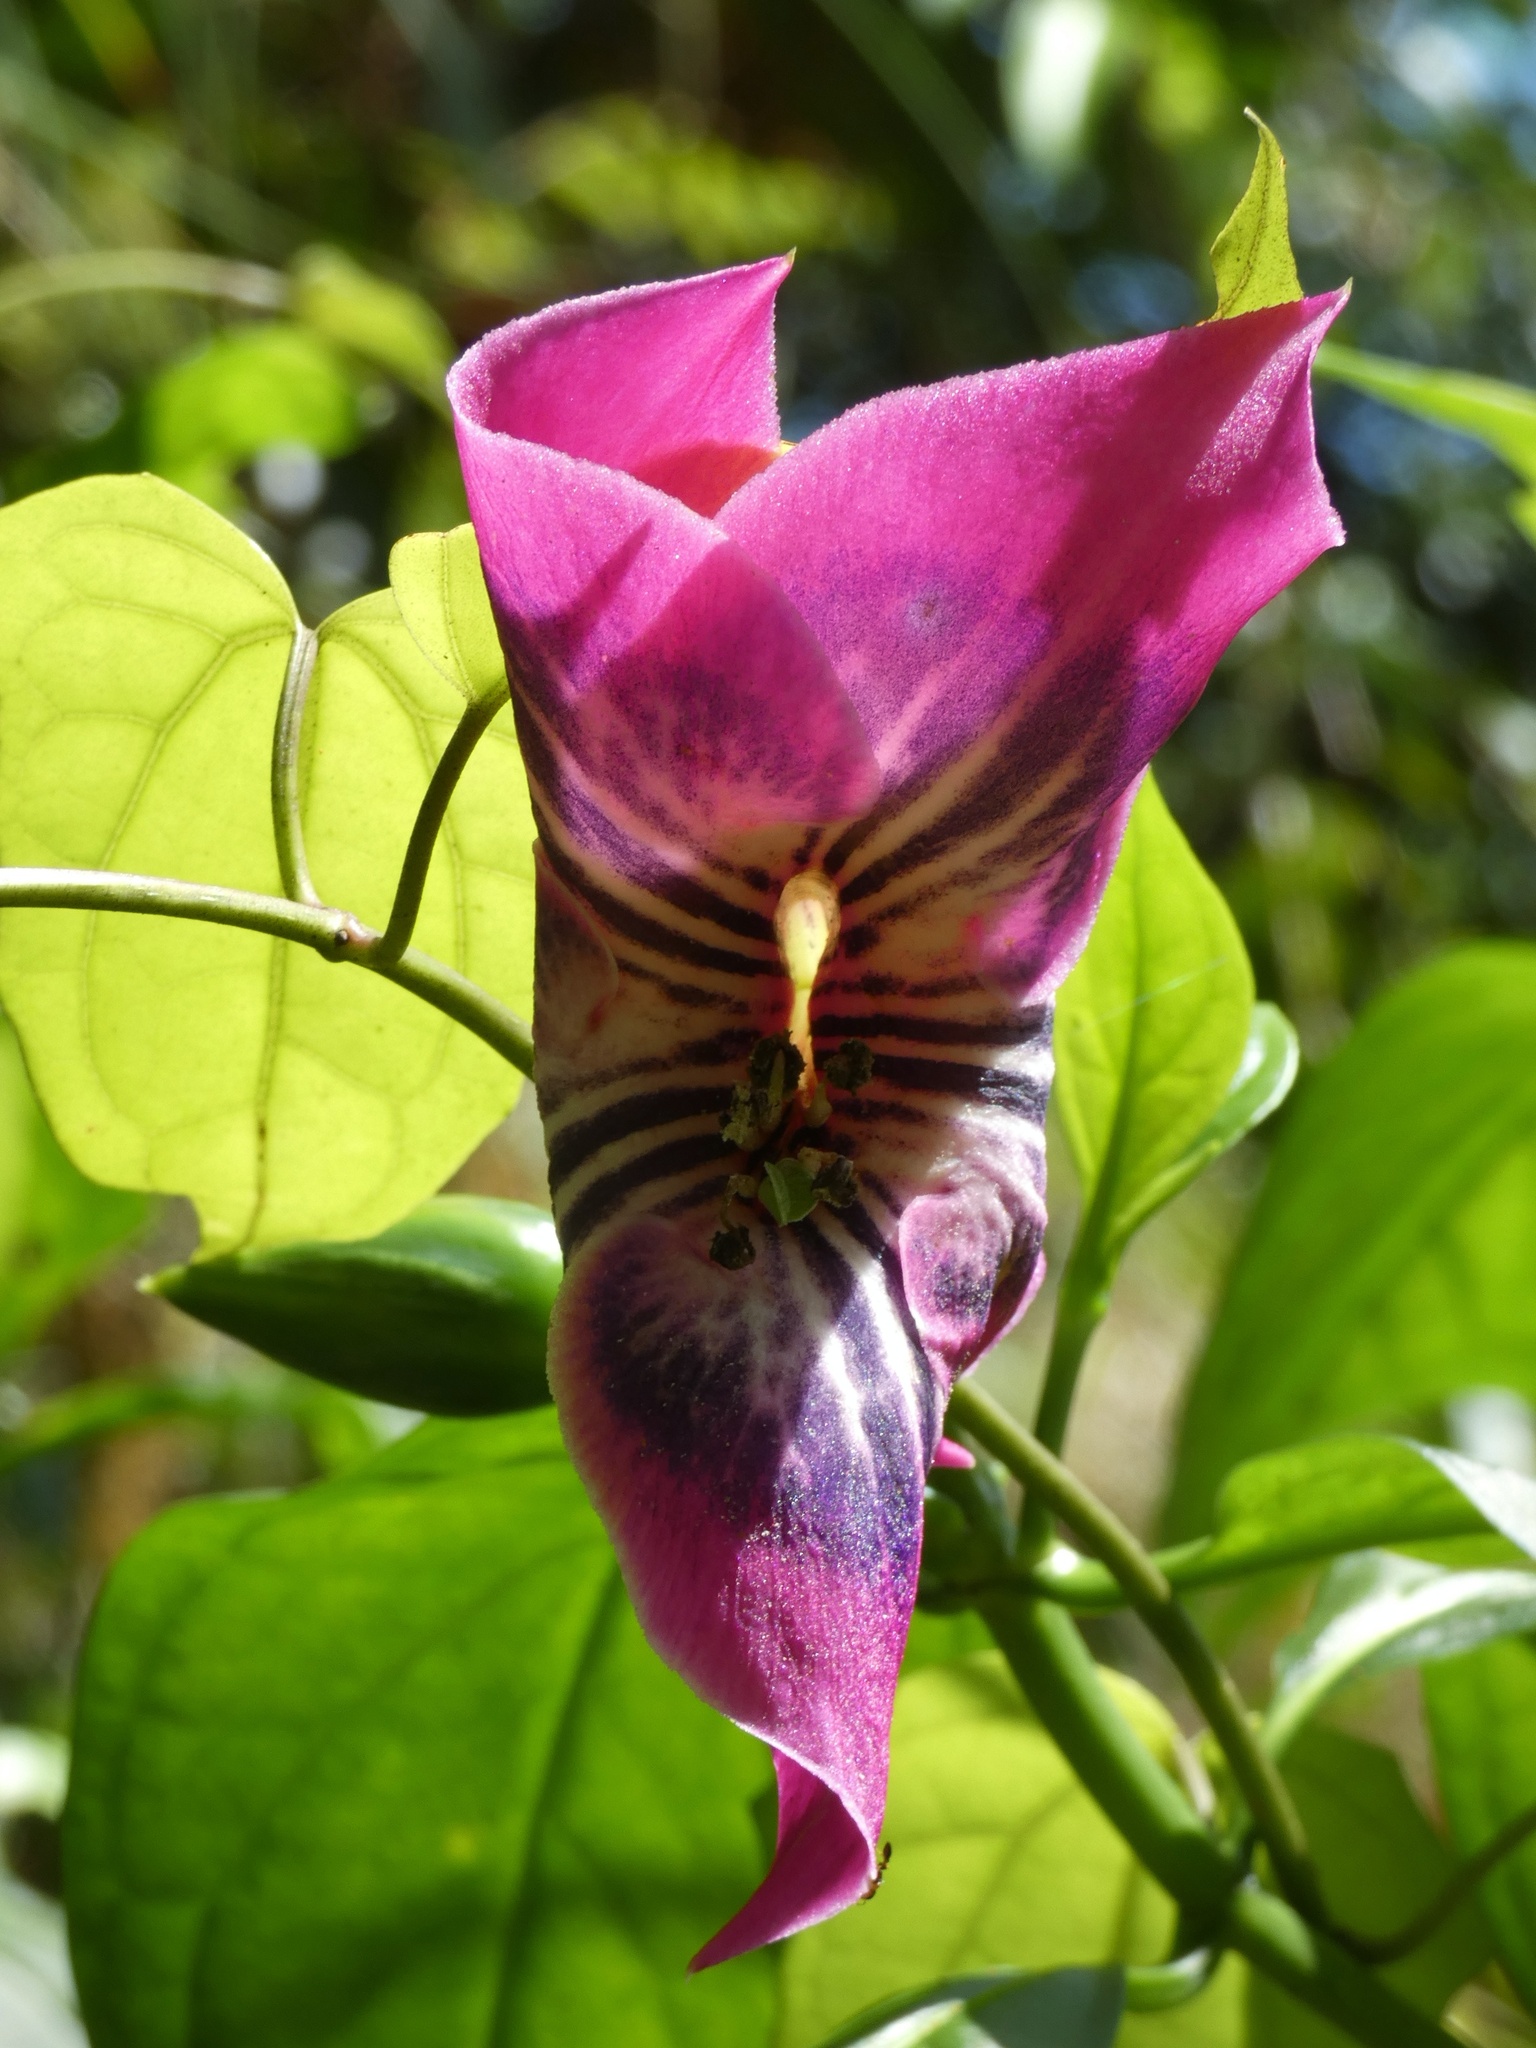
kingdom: Plantae
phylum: Tracheophyta
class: Magnoliopsida
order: Gentianales
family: Gentianaceae
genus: Symbolanthus
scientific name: Symbolanthus solaris
